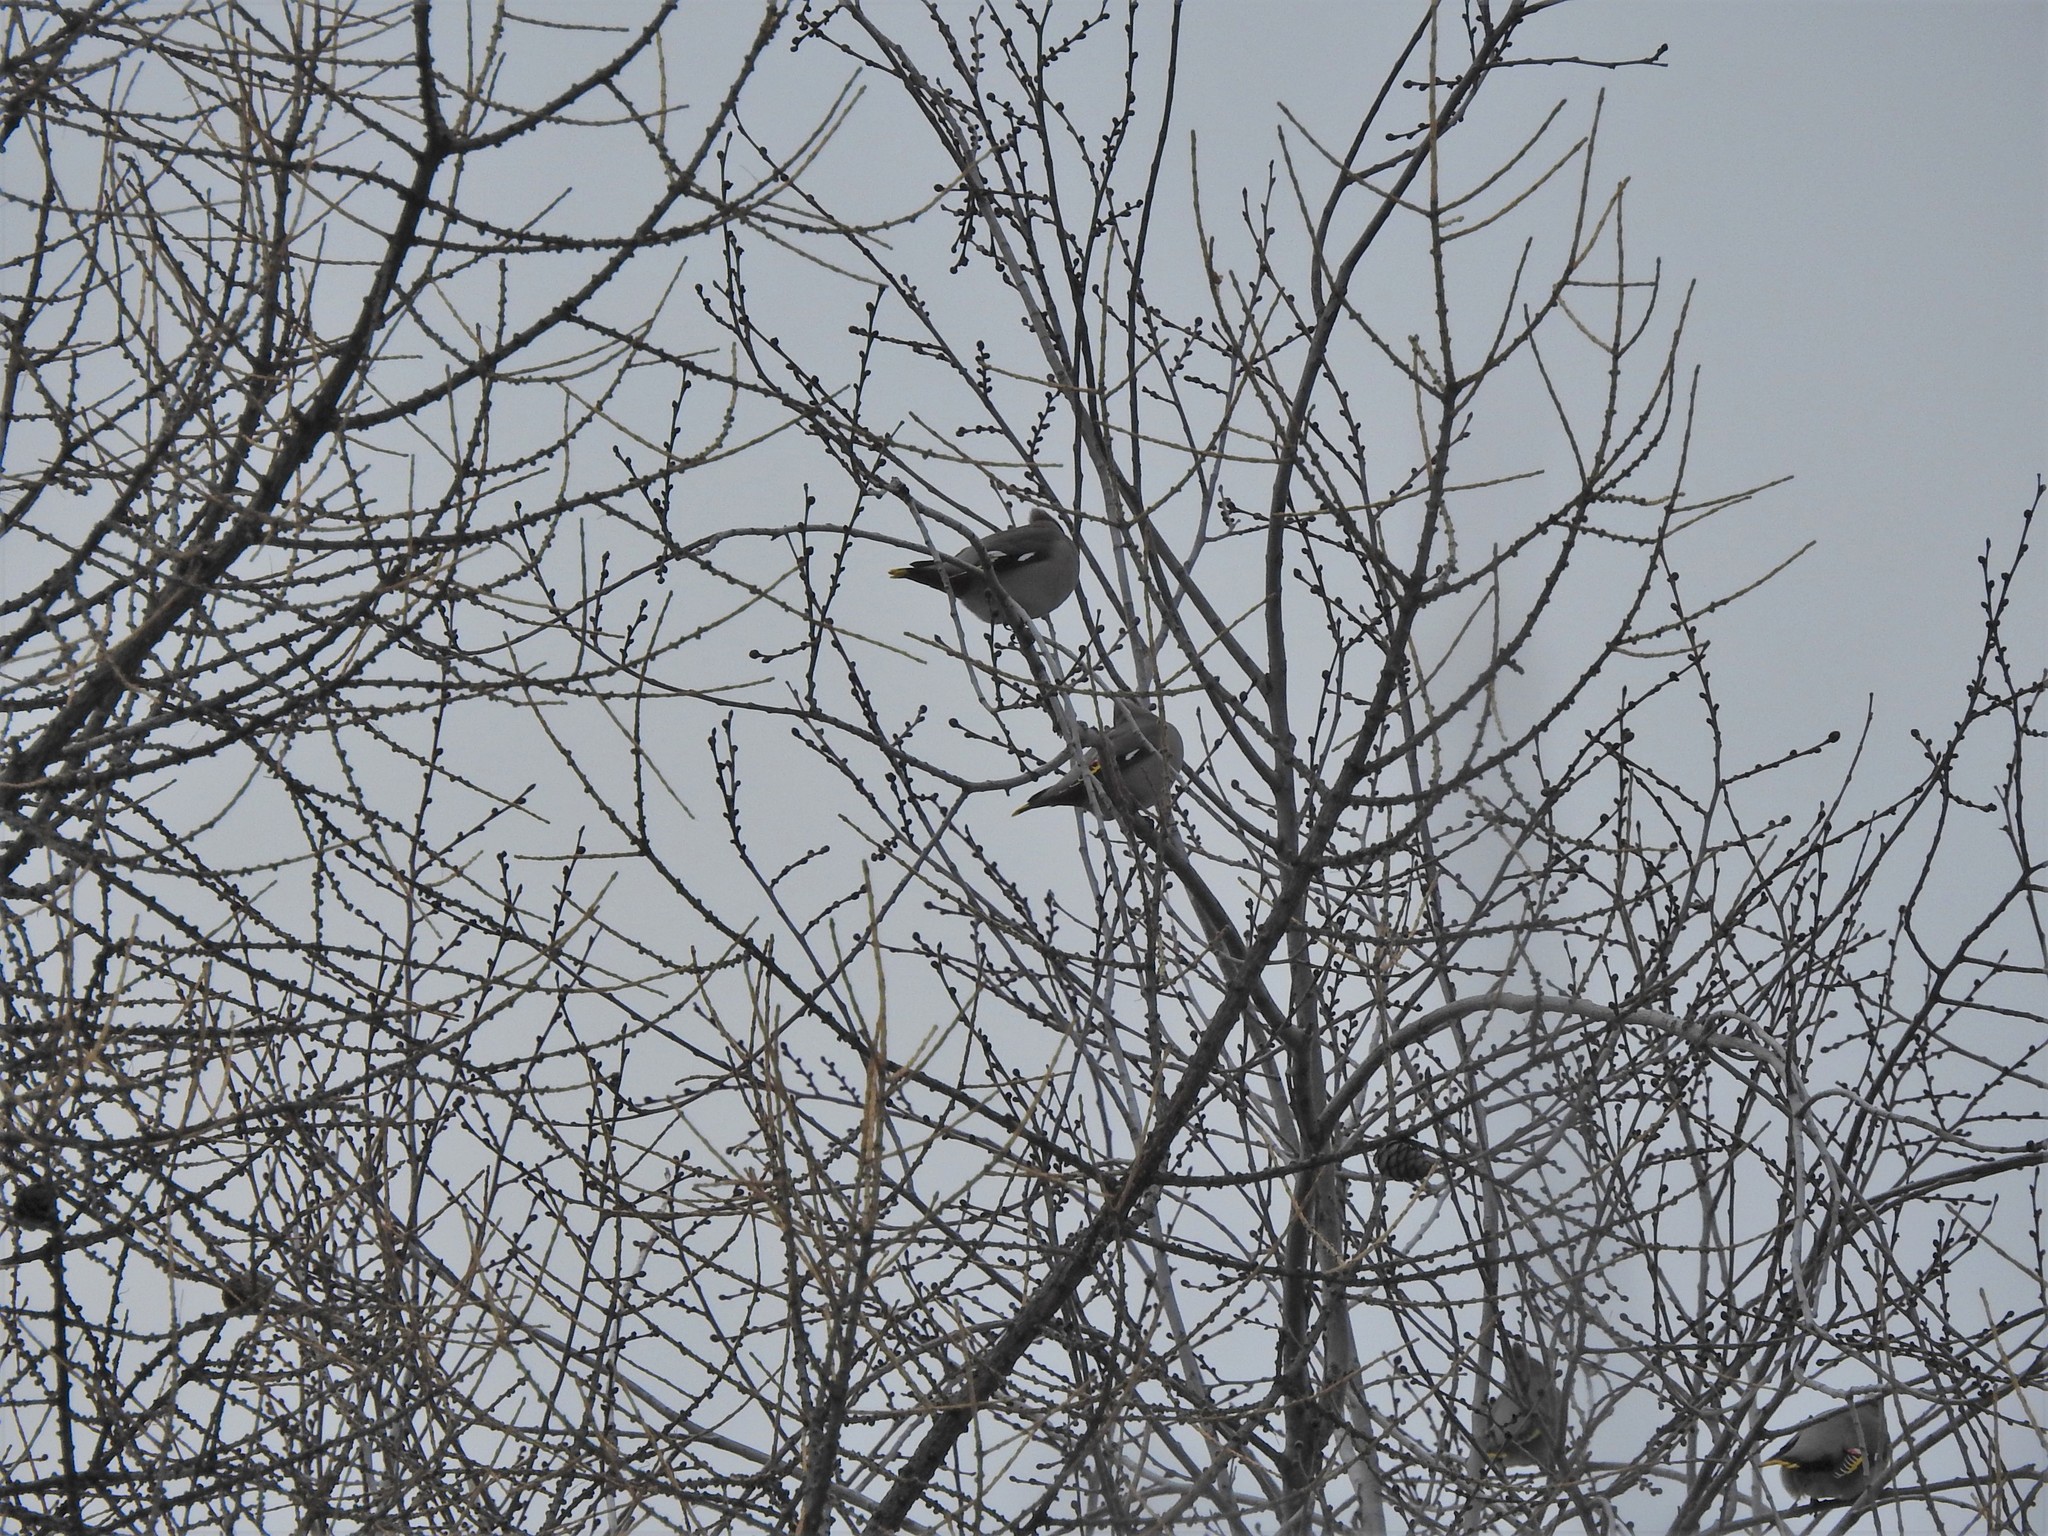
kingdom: Animalia
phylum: Chordata
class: Aves
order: Passeriformes
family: Bombycillidae
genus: Bombycilla
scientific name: Bombycilla garrulus
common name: Bohemian waxwing
